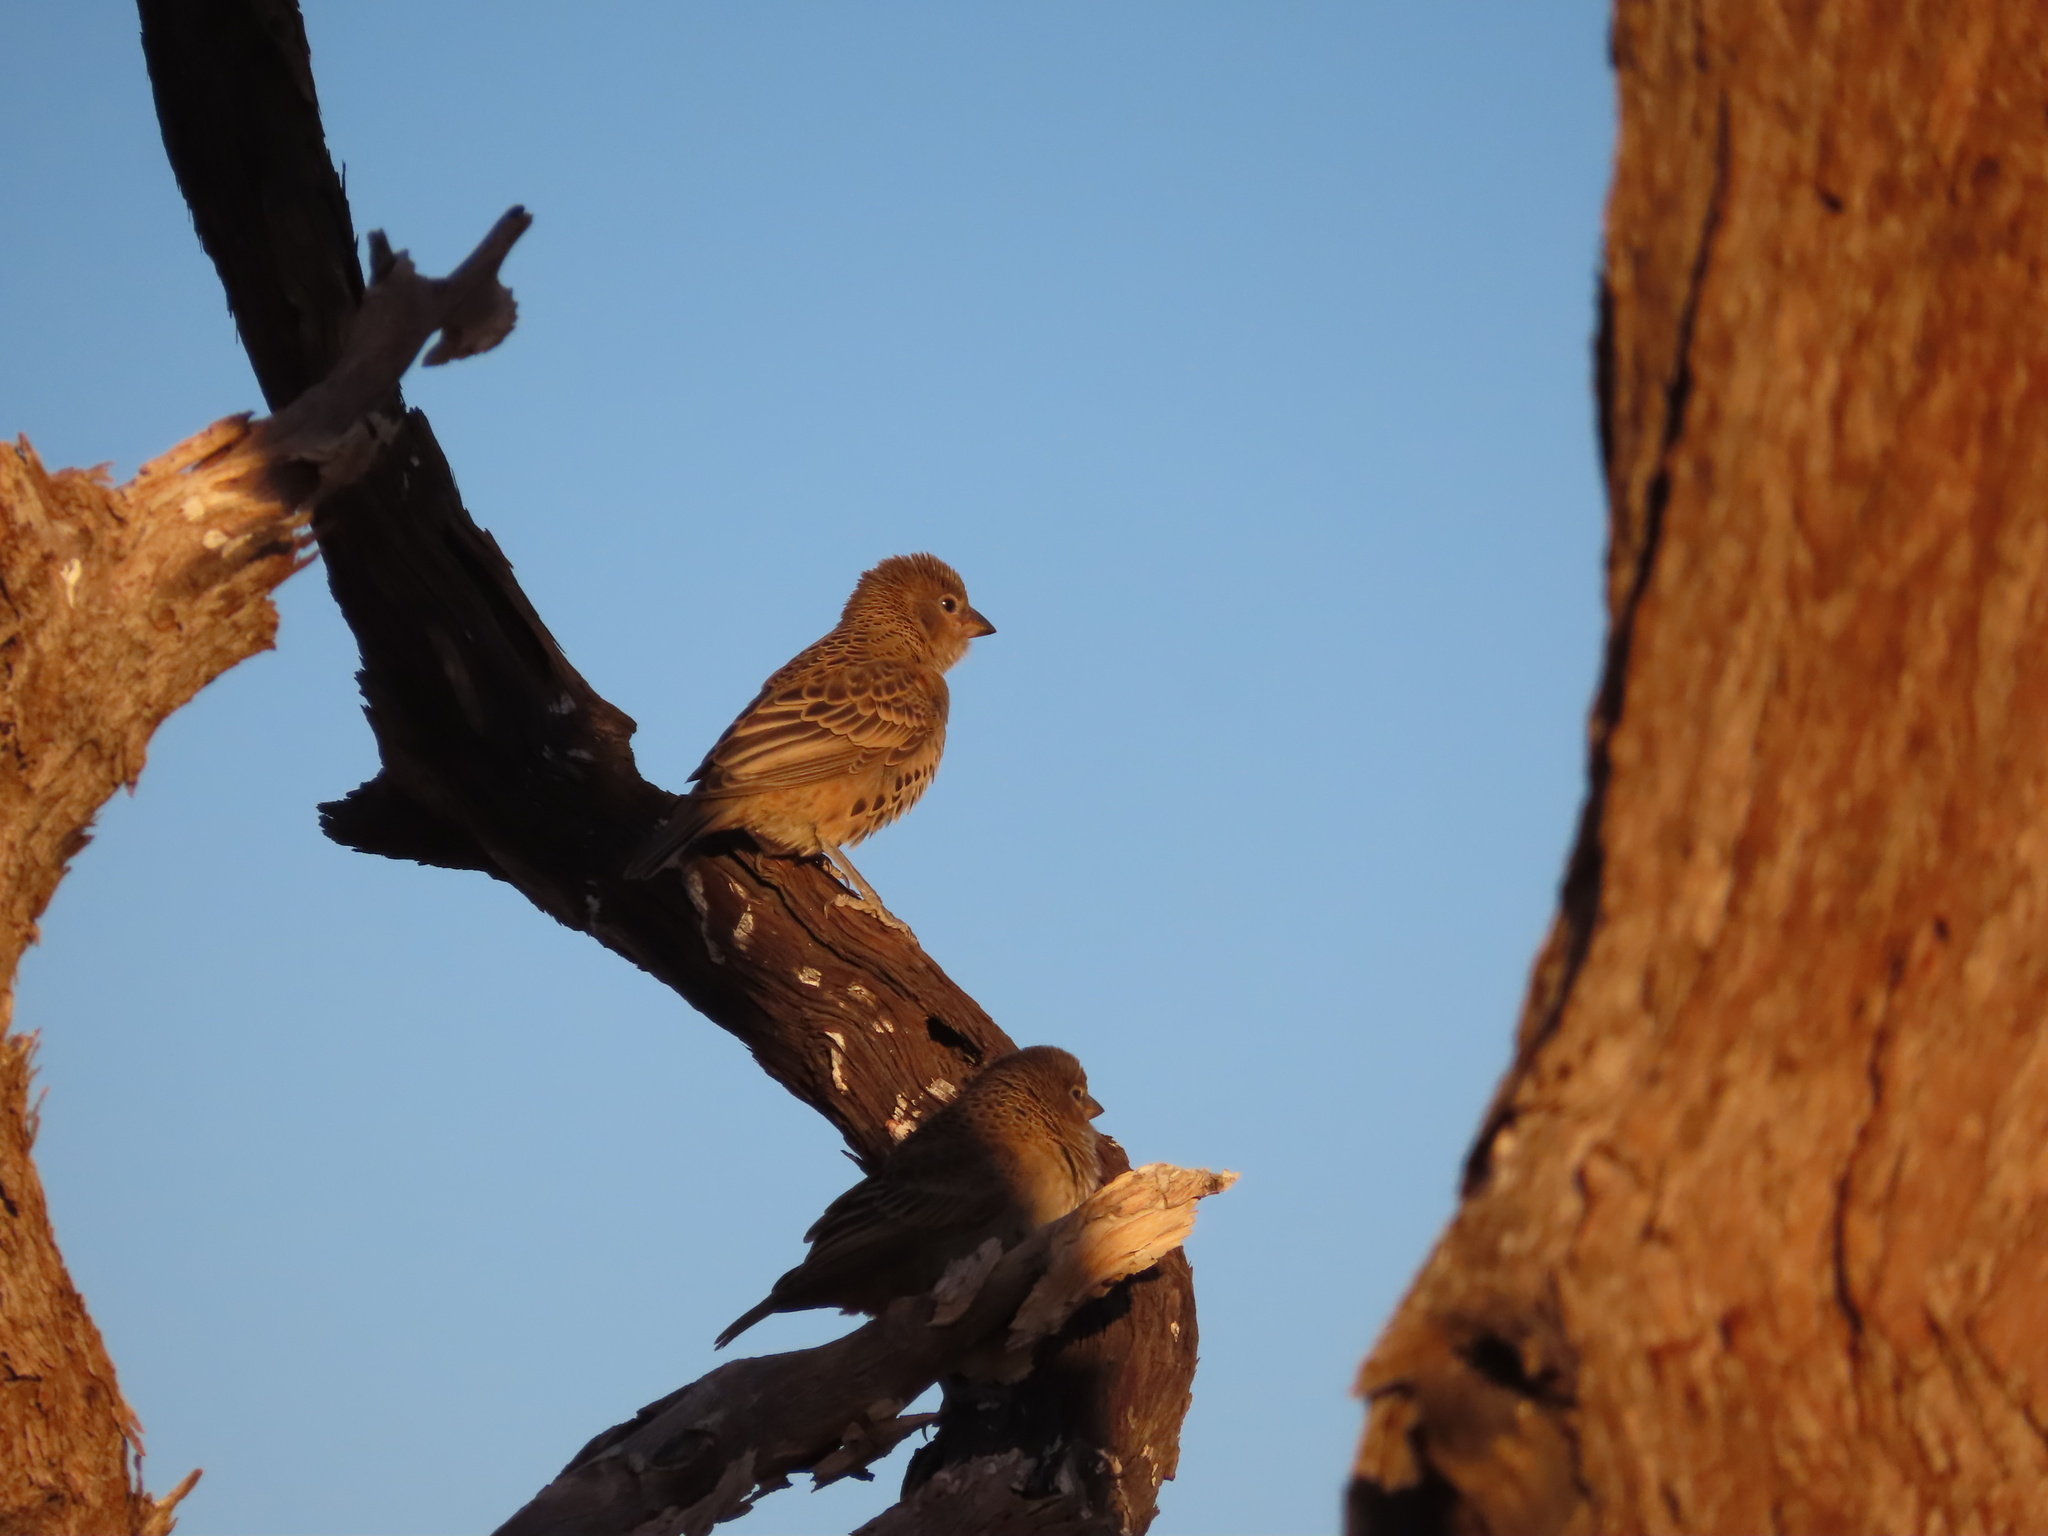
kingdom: Animalia
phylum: Chordata
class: Aves
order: Passeriformes
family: Passeridae
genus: Philetairus
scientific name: Philetairus socius
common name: Sociable weaver
